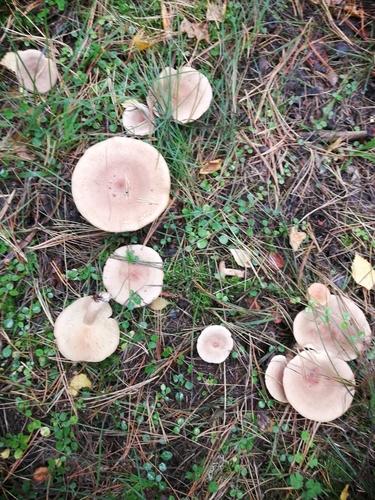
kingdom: Fungi
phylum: Basidiomycota
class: Agaricomycetes
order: Russulales
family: Russulaceae
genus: Lactarius
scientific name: Lactarius helvus
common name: Fenugreek milkcap
